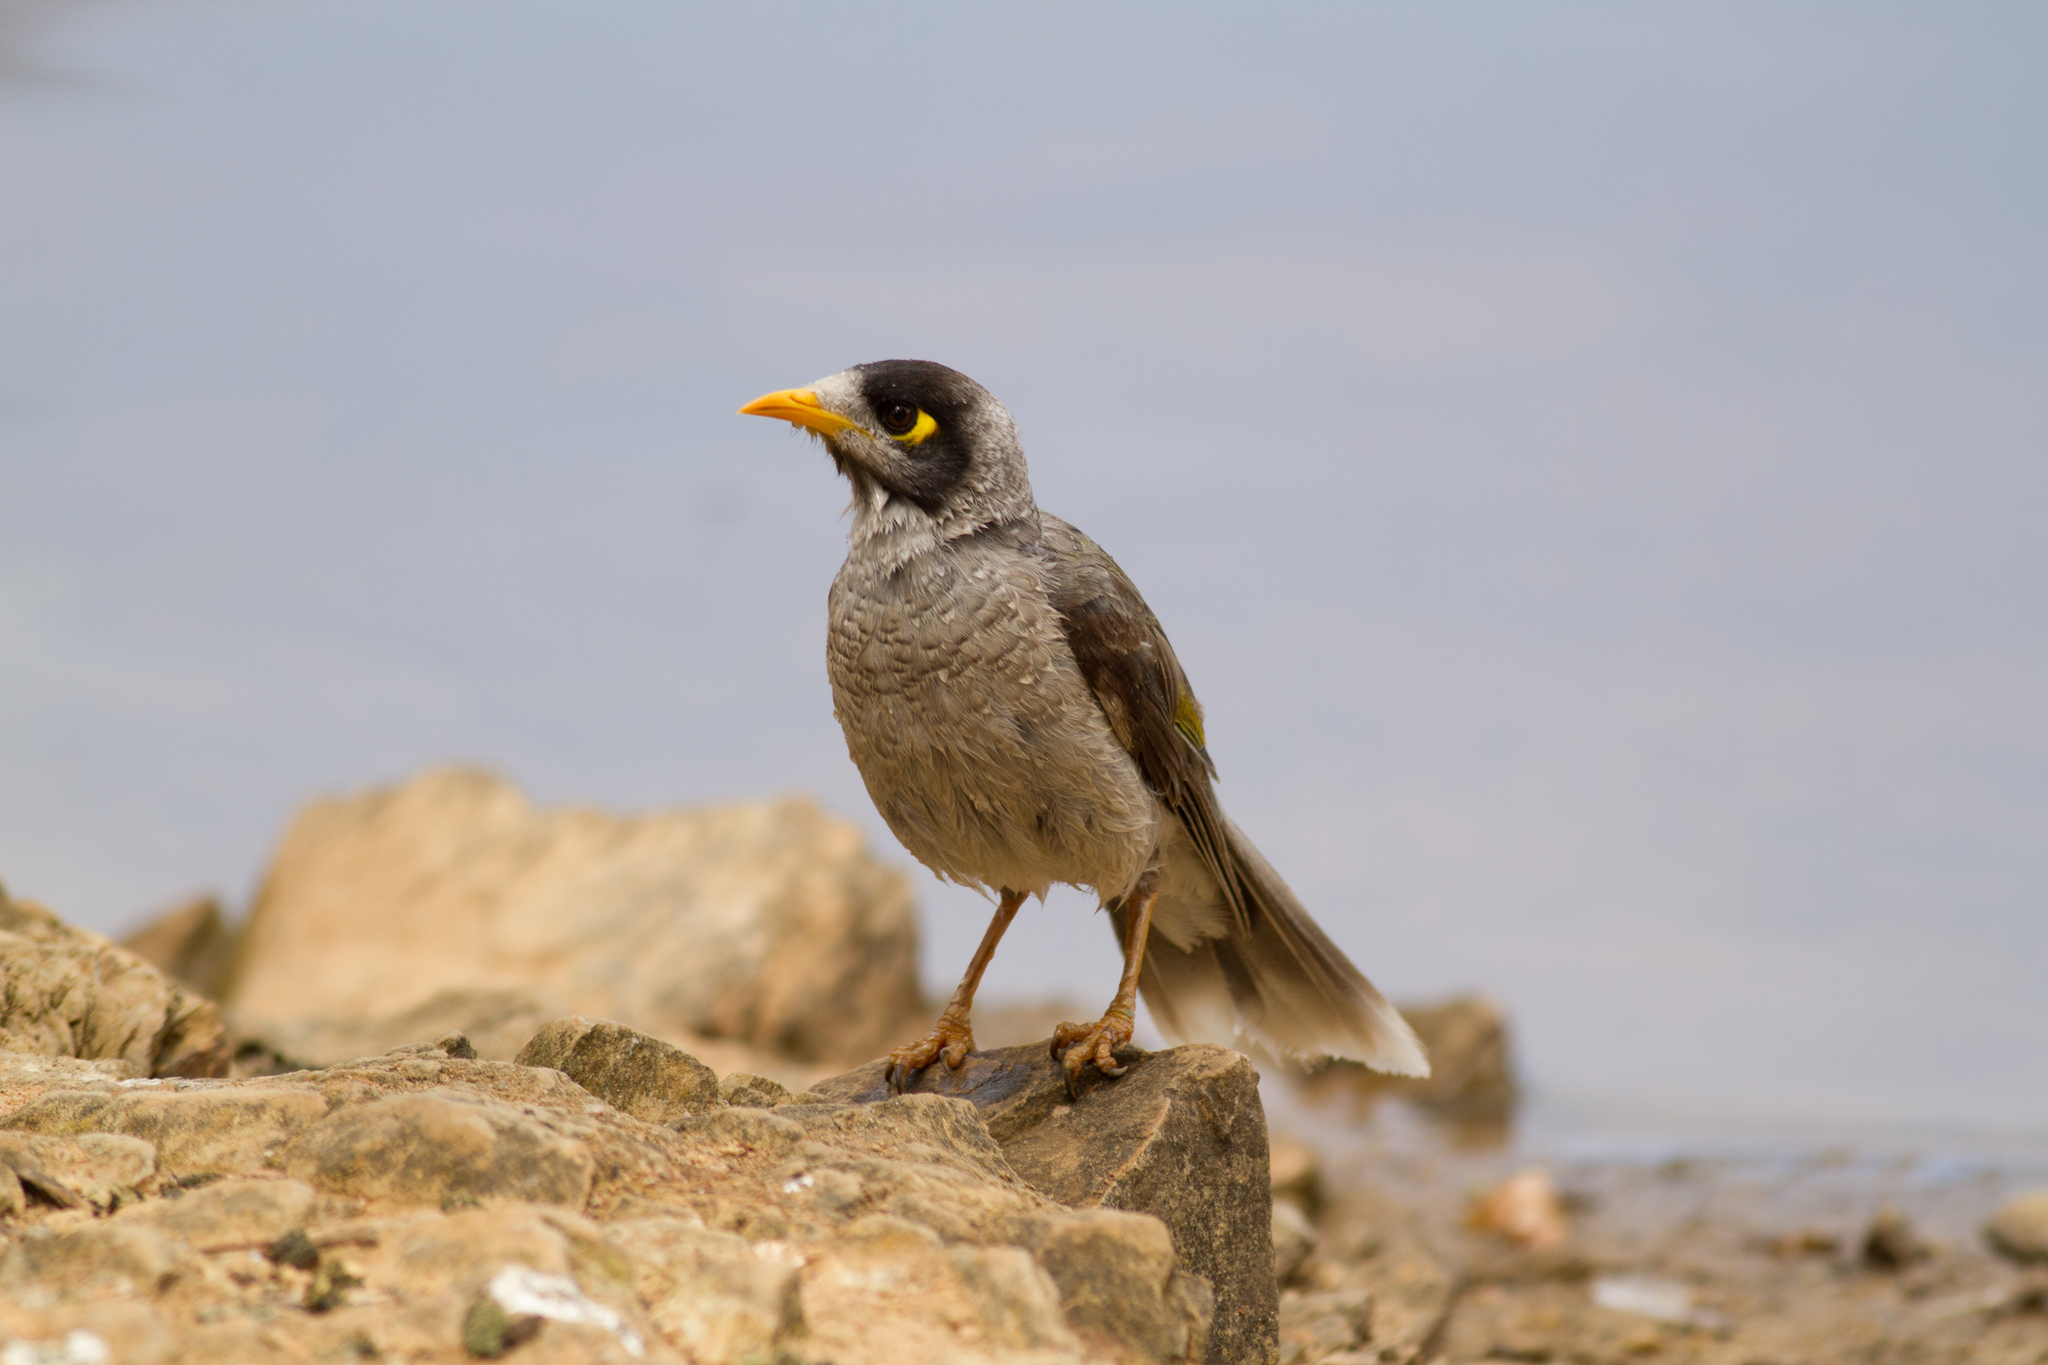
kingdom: Animalia
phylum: Chordata
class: Aves
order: Passeriformes
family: Meliphagidae
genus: Manorina
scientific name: Manorina melanocephala
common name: Noisy miner
